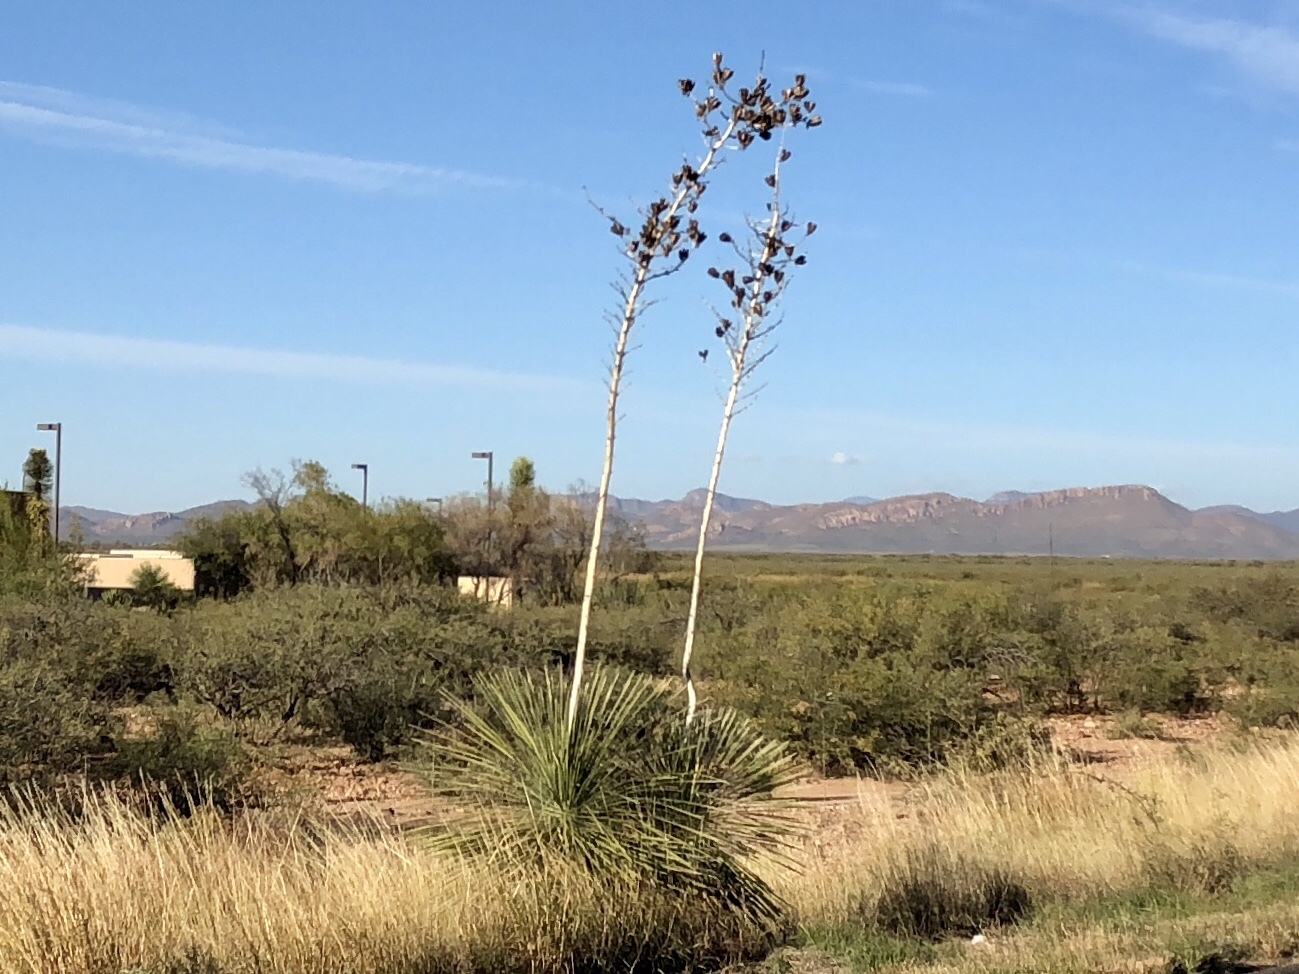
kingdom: Plantae
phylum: Tracheophyta
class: Liliopsida
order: Asparagales
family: Asparagaceae
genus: Yucca
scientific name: Yucca elata
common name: Palmella
